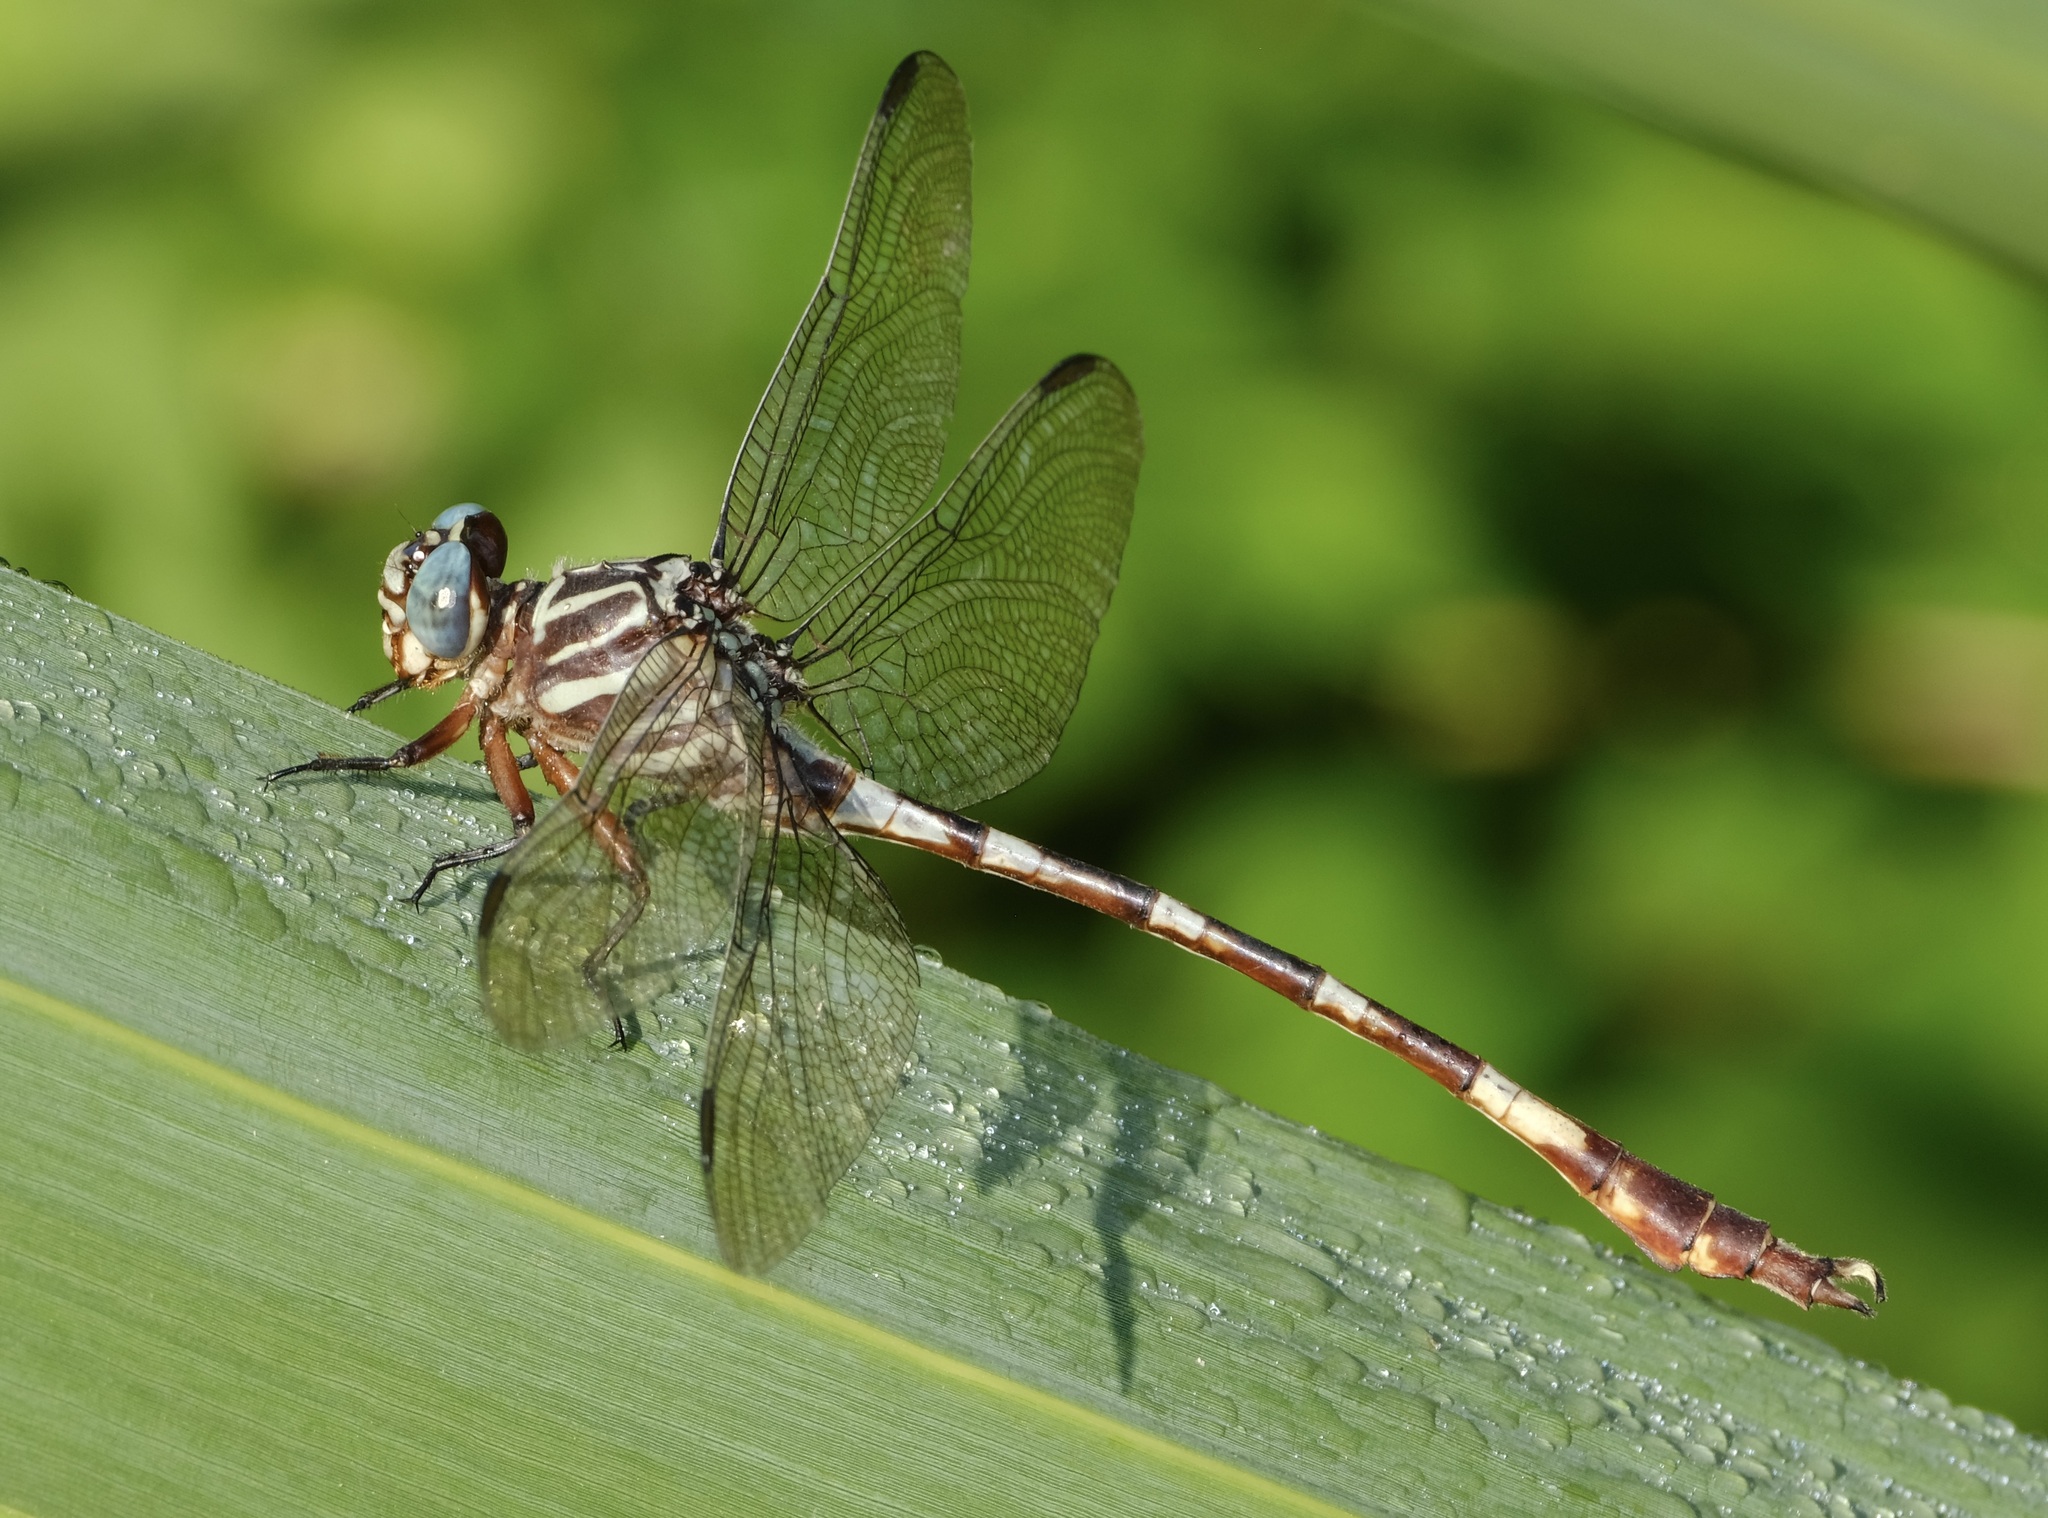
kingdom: Animalia
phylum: Arthropoda
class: Insecta
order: Odonata
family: Gomphidae
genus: Aphylla
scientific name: Aphylla angustifolia
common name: Broad-striped forceptail
